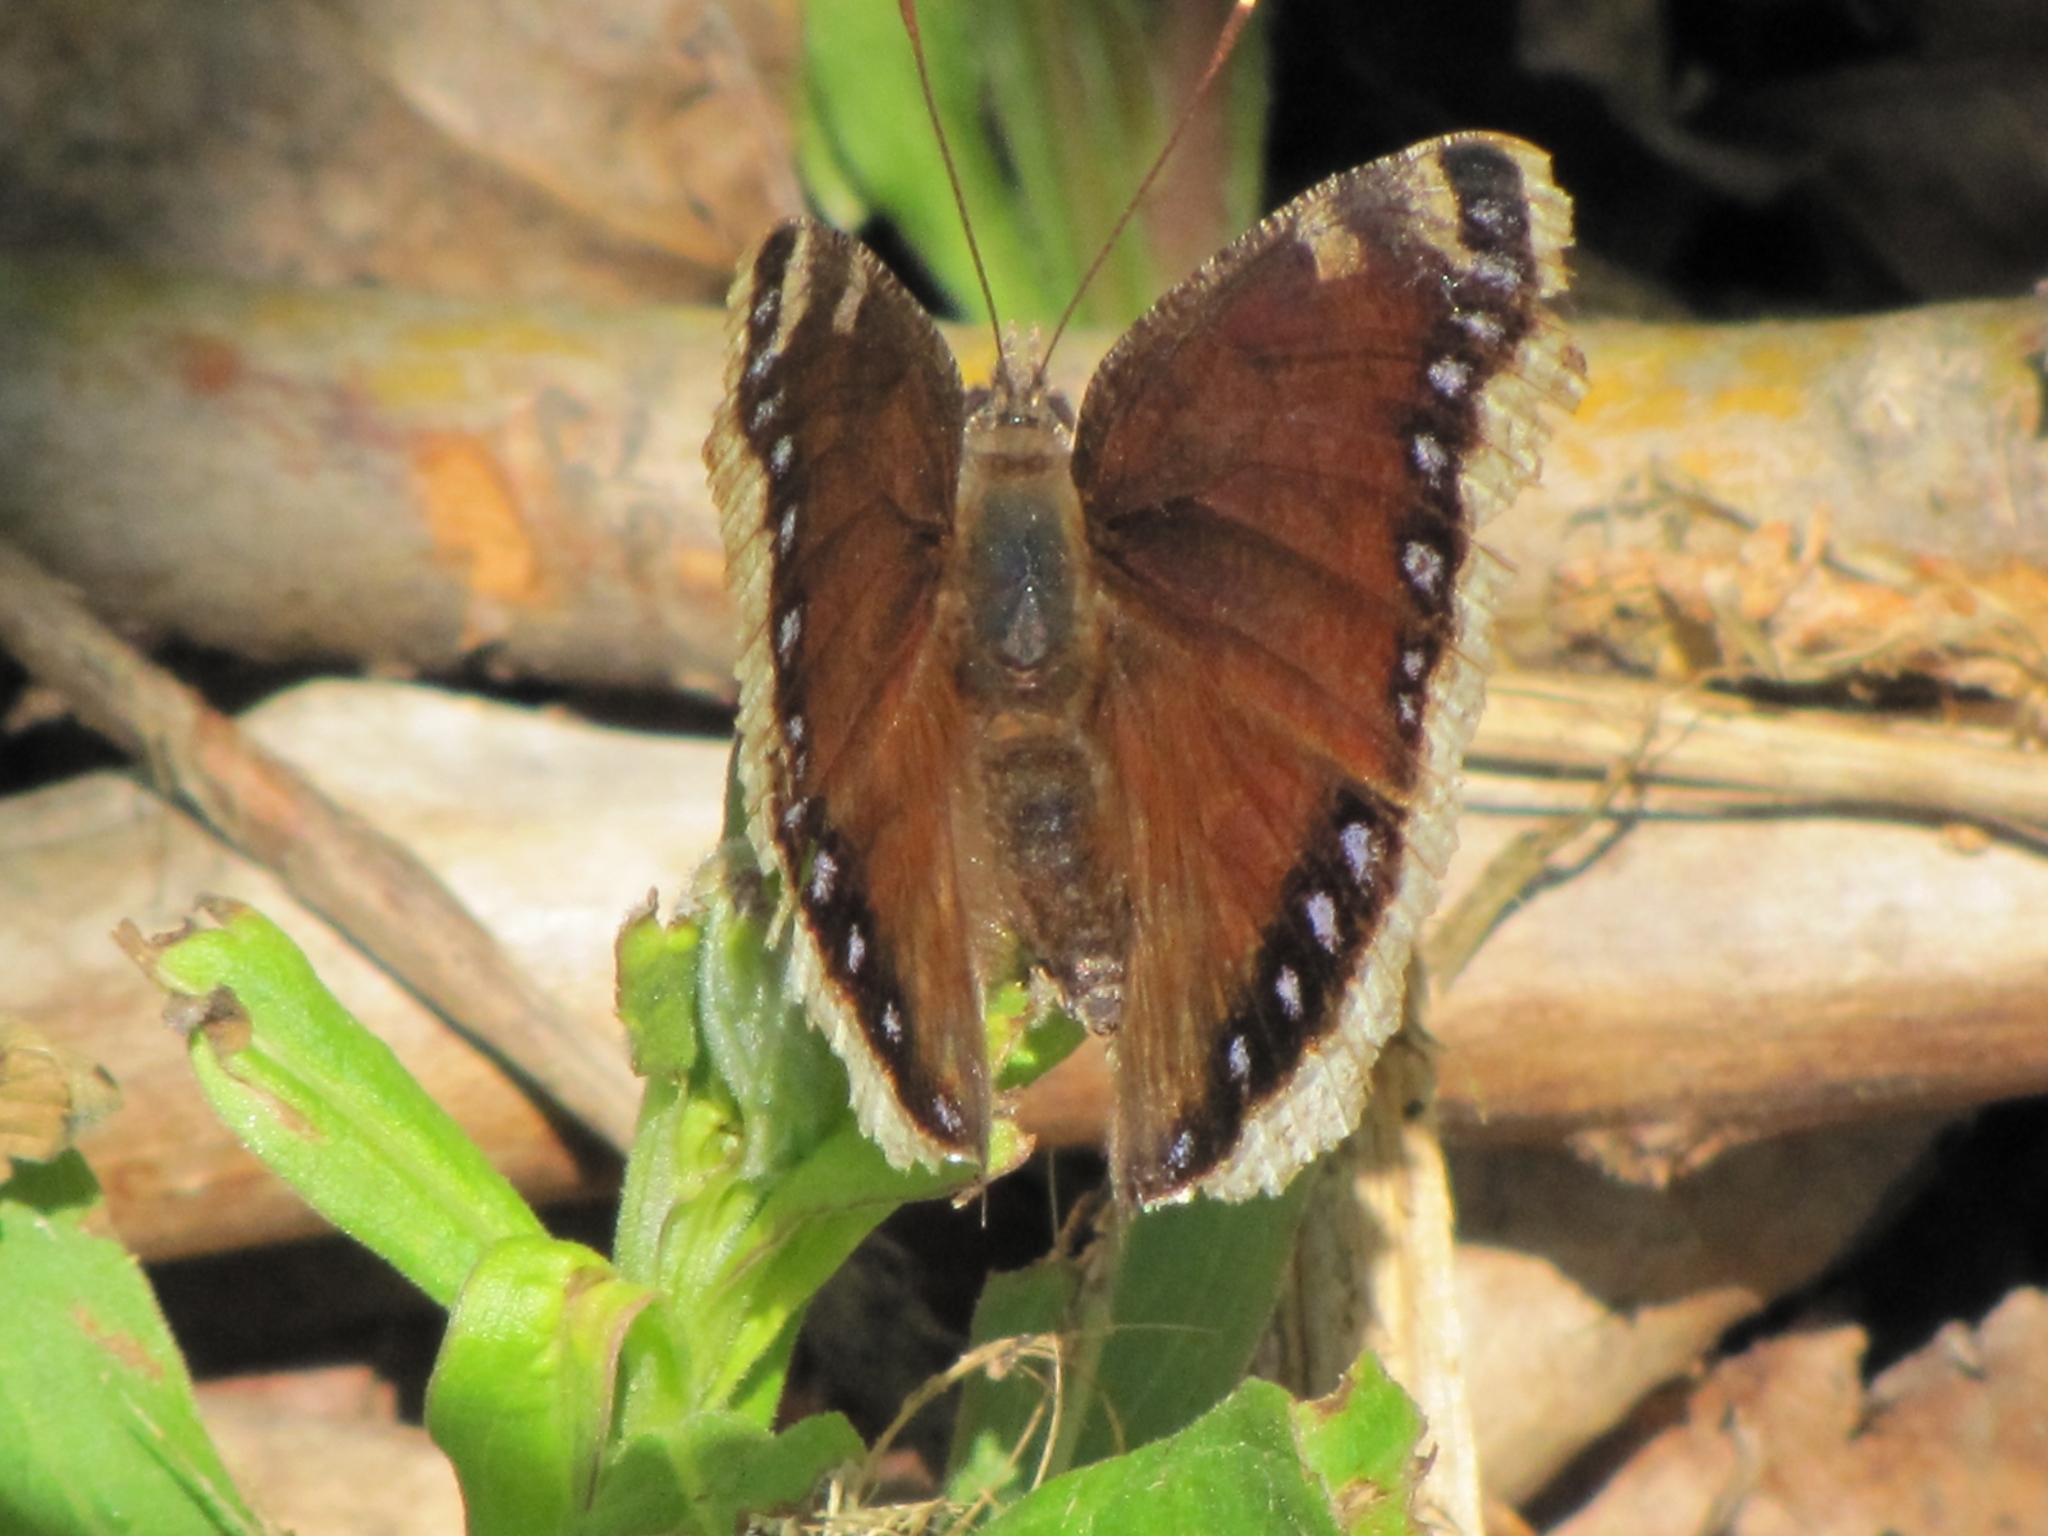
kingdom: Animalia
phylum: Arthropoda
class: Insecta
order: Lepidoptera
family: Nymphalidae
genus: Nymphalis
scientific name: Nymphalis antiopa
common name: Camberwell beauty
